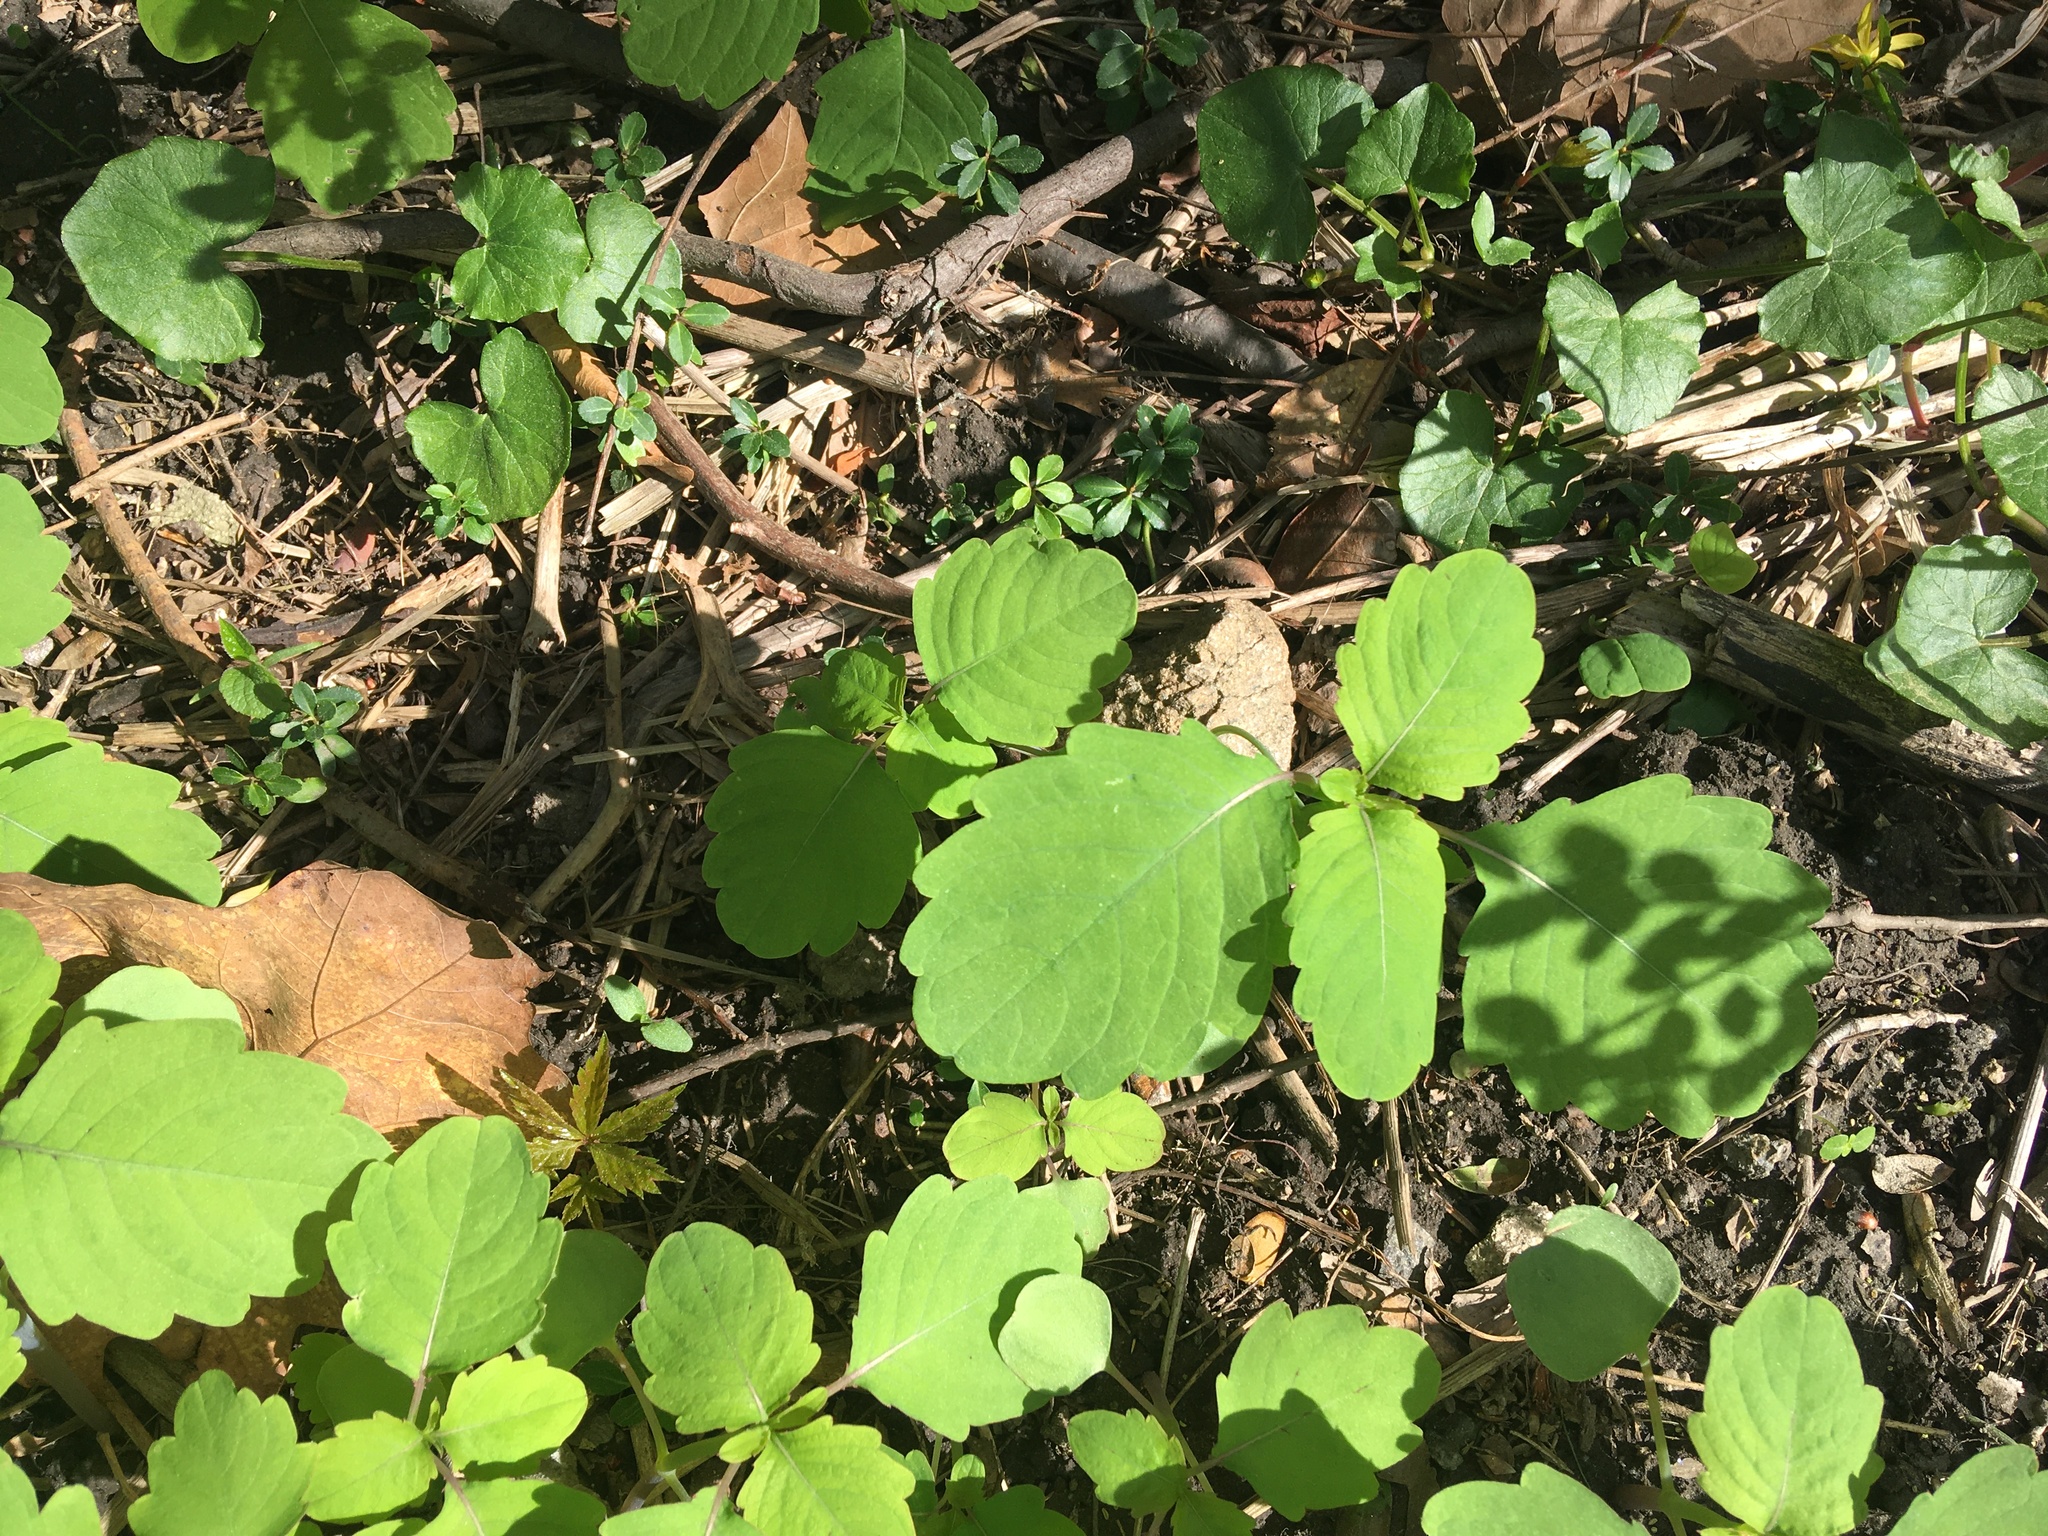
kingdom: Plantae
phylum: Tracheophyta
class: Magnoliopsida
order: Ericales
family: Balsaminaceae
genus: Impatiens
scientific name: Impatiens capensis
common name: Orange balsam
